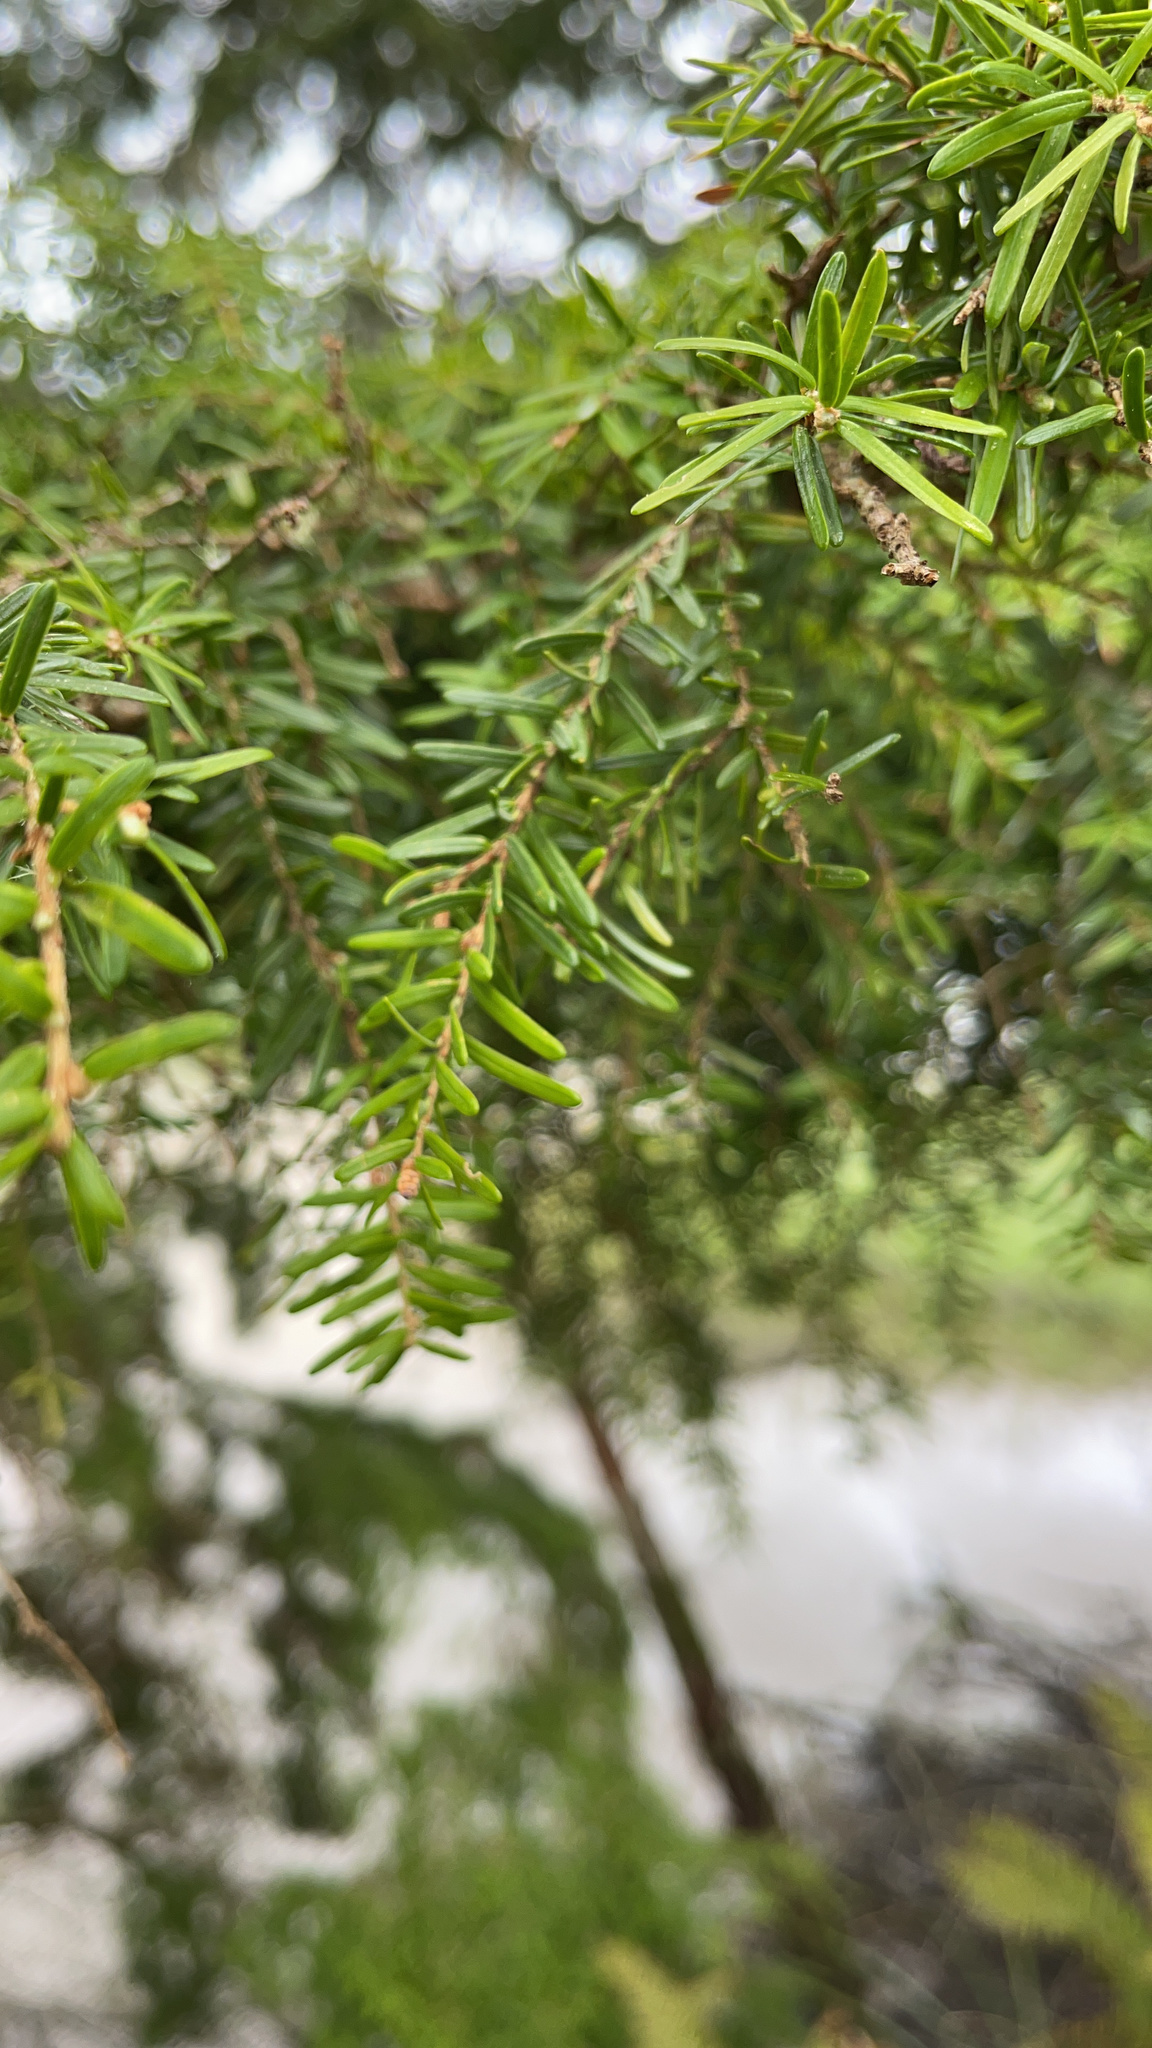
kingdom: Plantae
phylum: Tracheophyta
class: Pinopsida
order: Pinales
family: Pinaceae
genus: Tsuga
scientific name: Tsuga heterophylla
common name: Western hemlock
